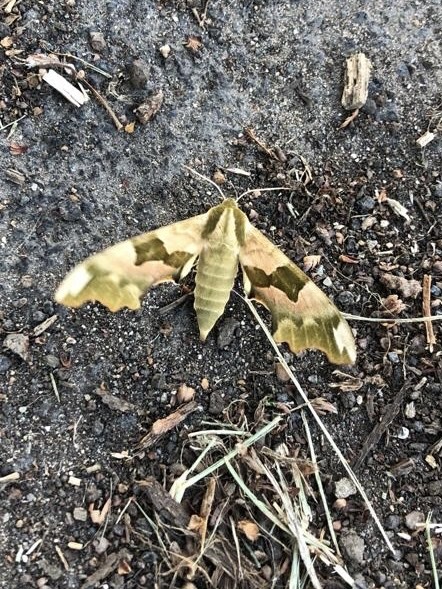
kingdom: Animalia
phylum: Arthropoda
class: Insecta
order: Lepidoptera
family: Sphingidae
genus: Mimas
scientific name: Mimas tiliae
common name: Lime hawk-moth
